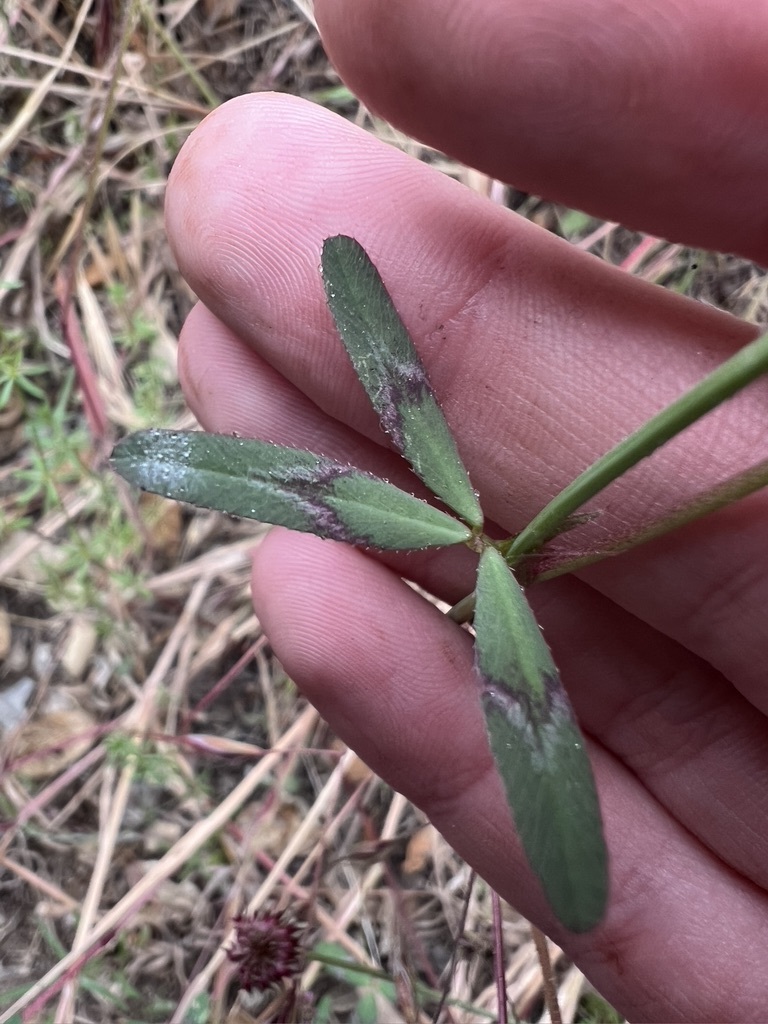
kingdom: Plantae
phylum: Tracheophyta
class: Magnoliopsida
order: Fabales
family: Fabaceae
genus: Trifolium
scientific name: Trifolium ciliolatum
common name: Foothill clover
